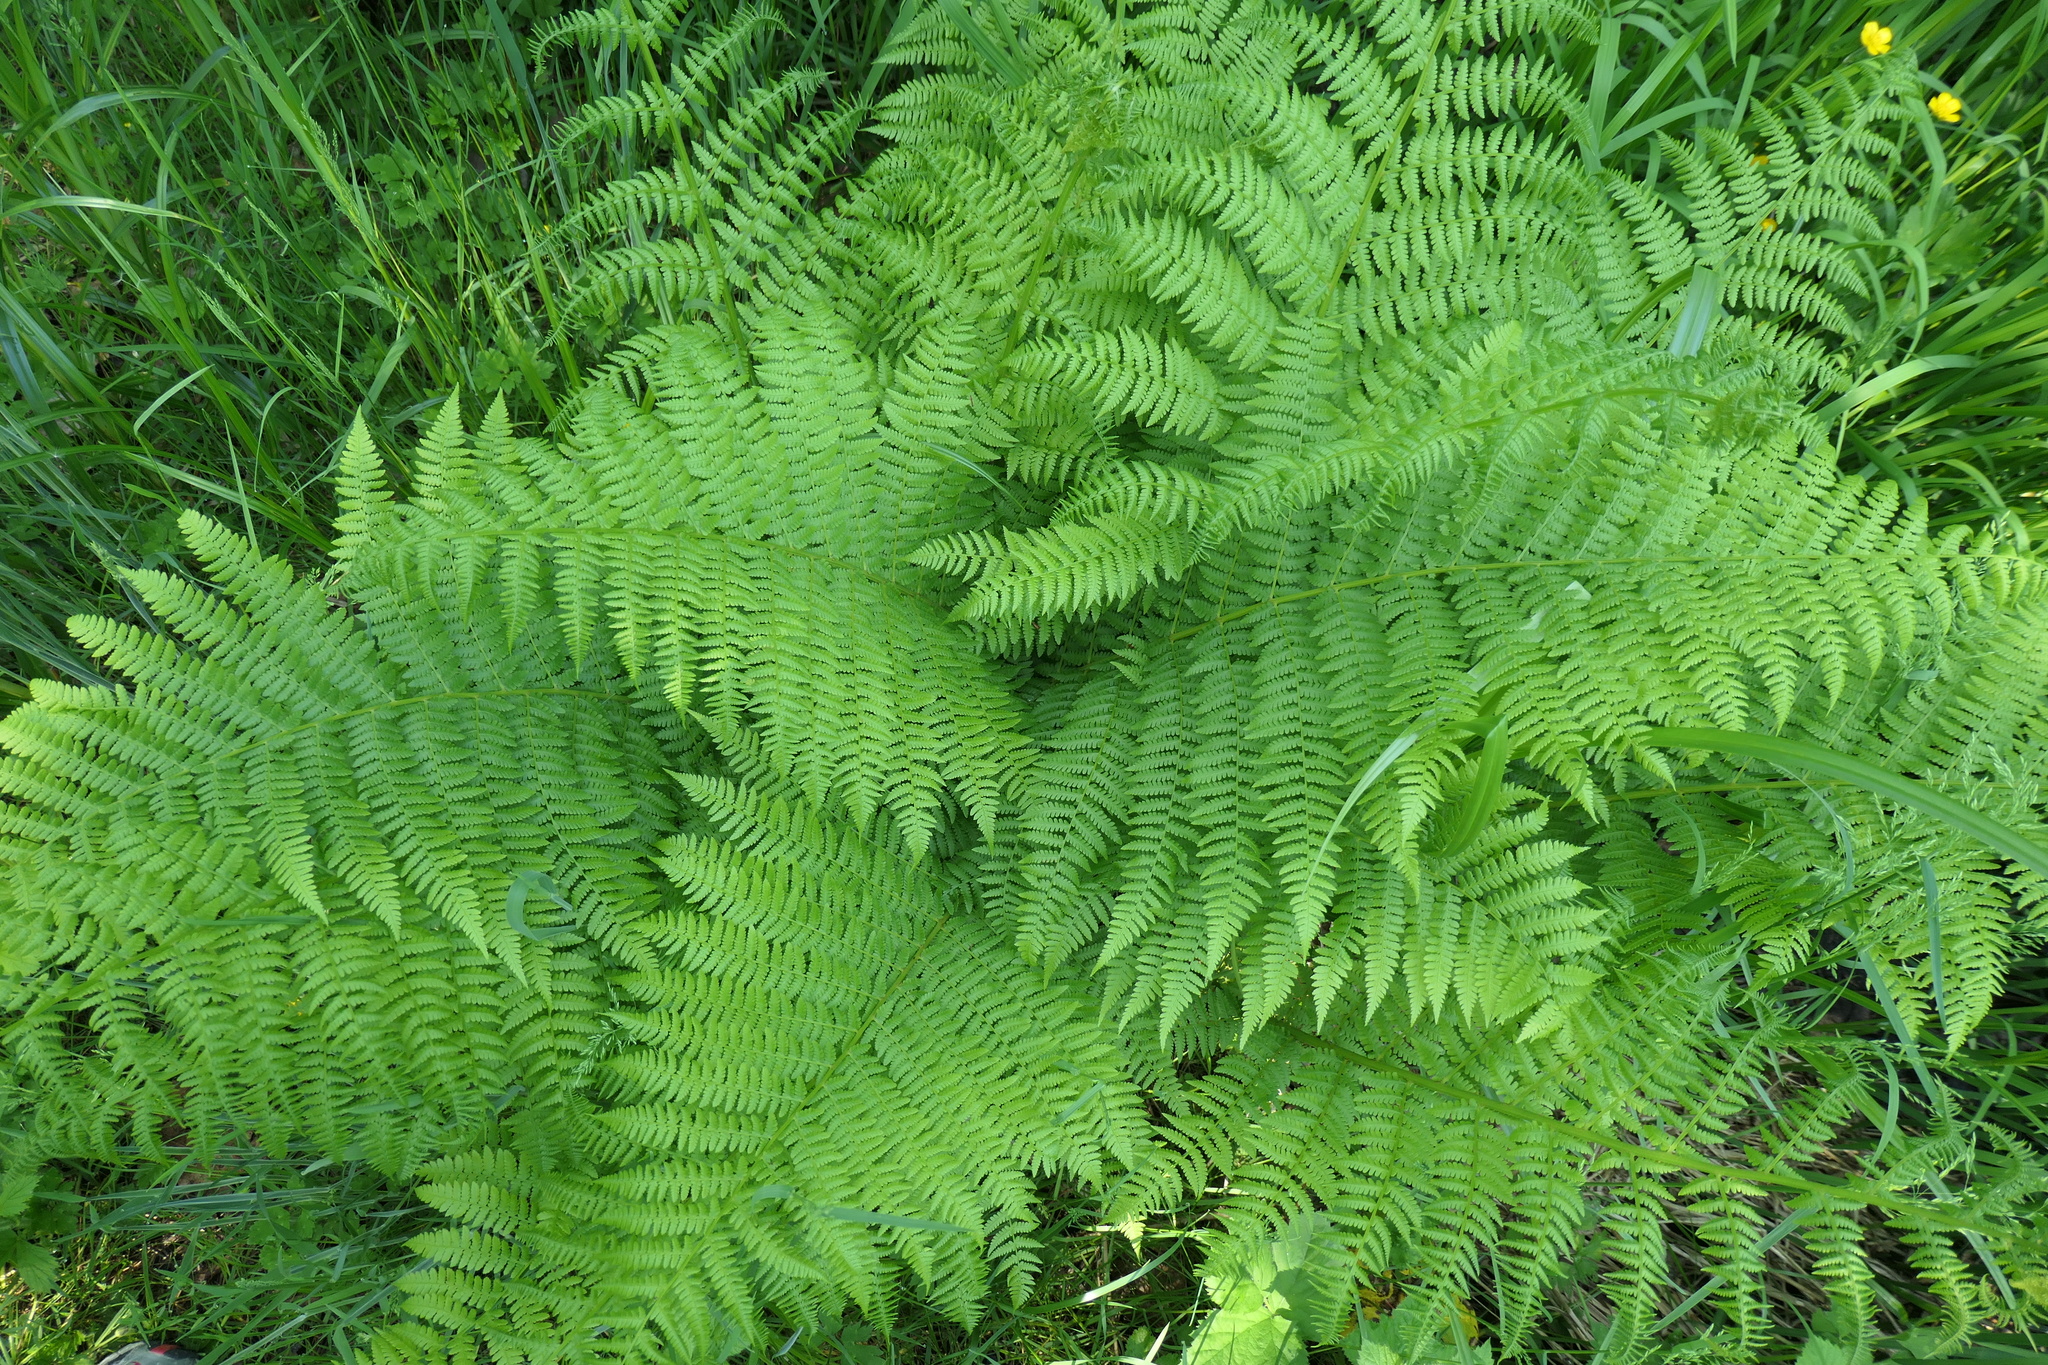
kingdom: Plantae
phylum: Tracheophyta
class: Polypodiopsida
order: Polypodiales
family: Athyriaceae
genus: Athyrium
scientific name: Athyrium filix-femina
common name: Lady fern
